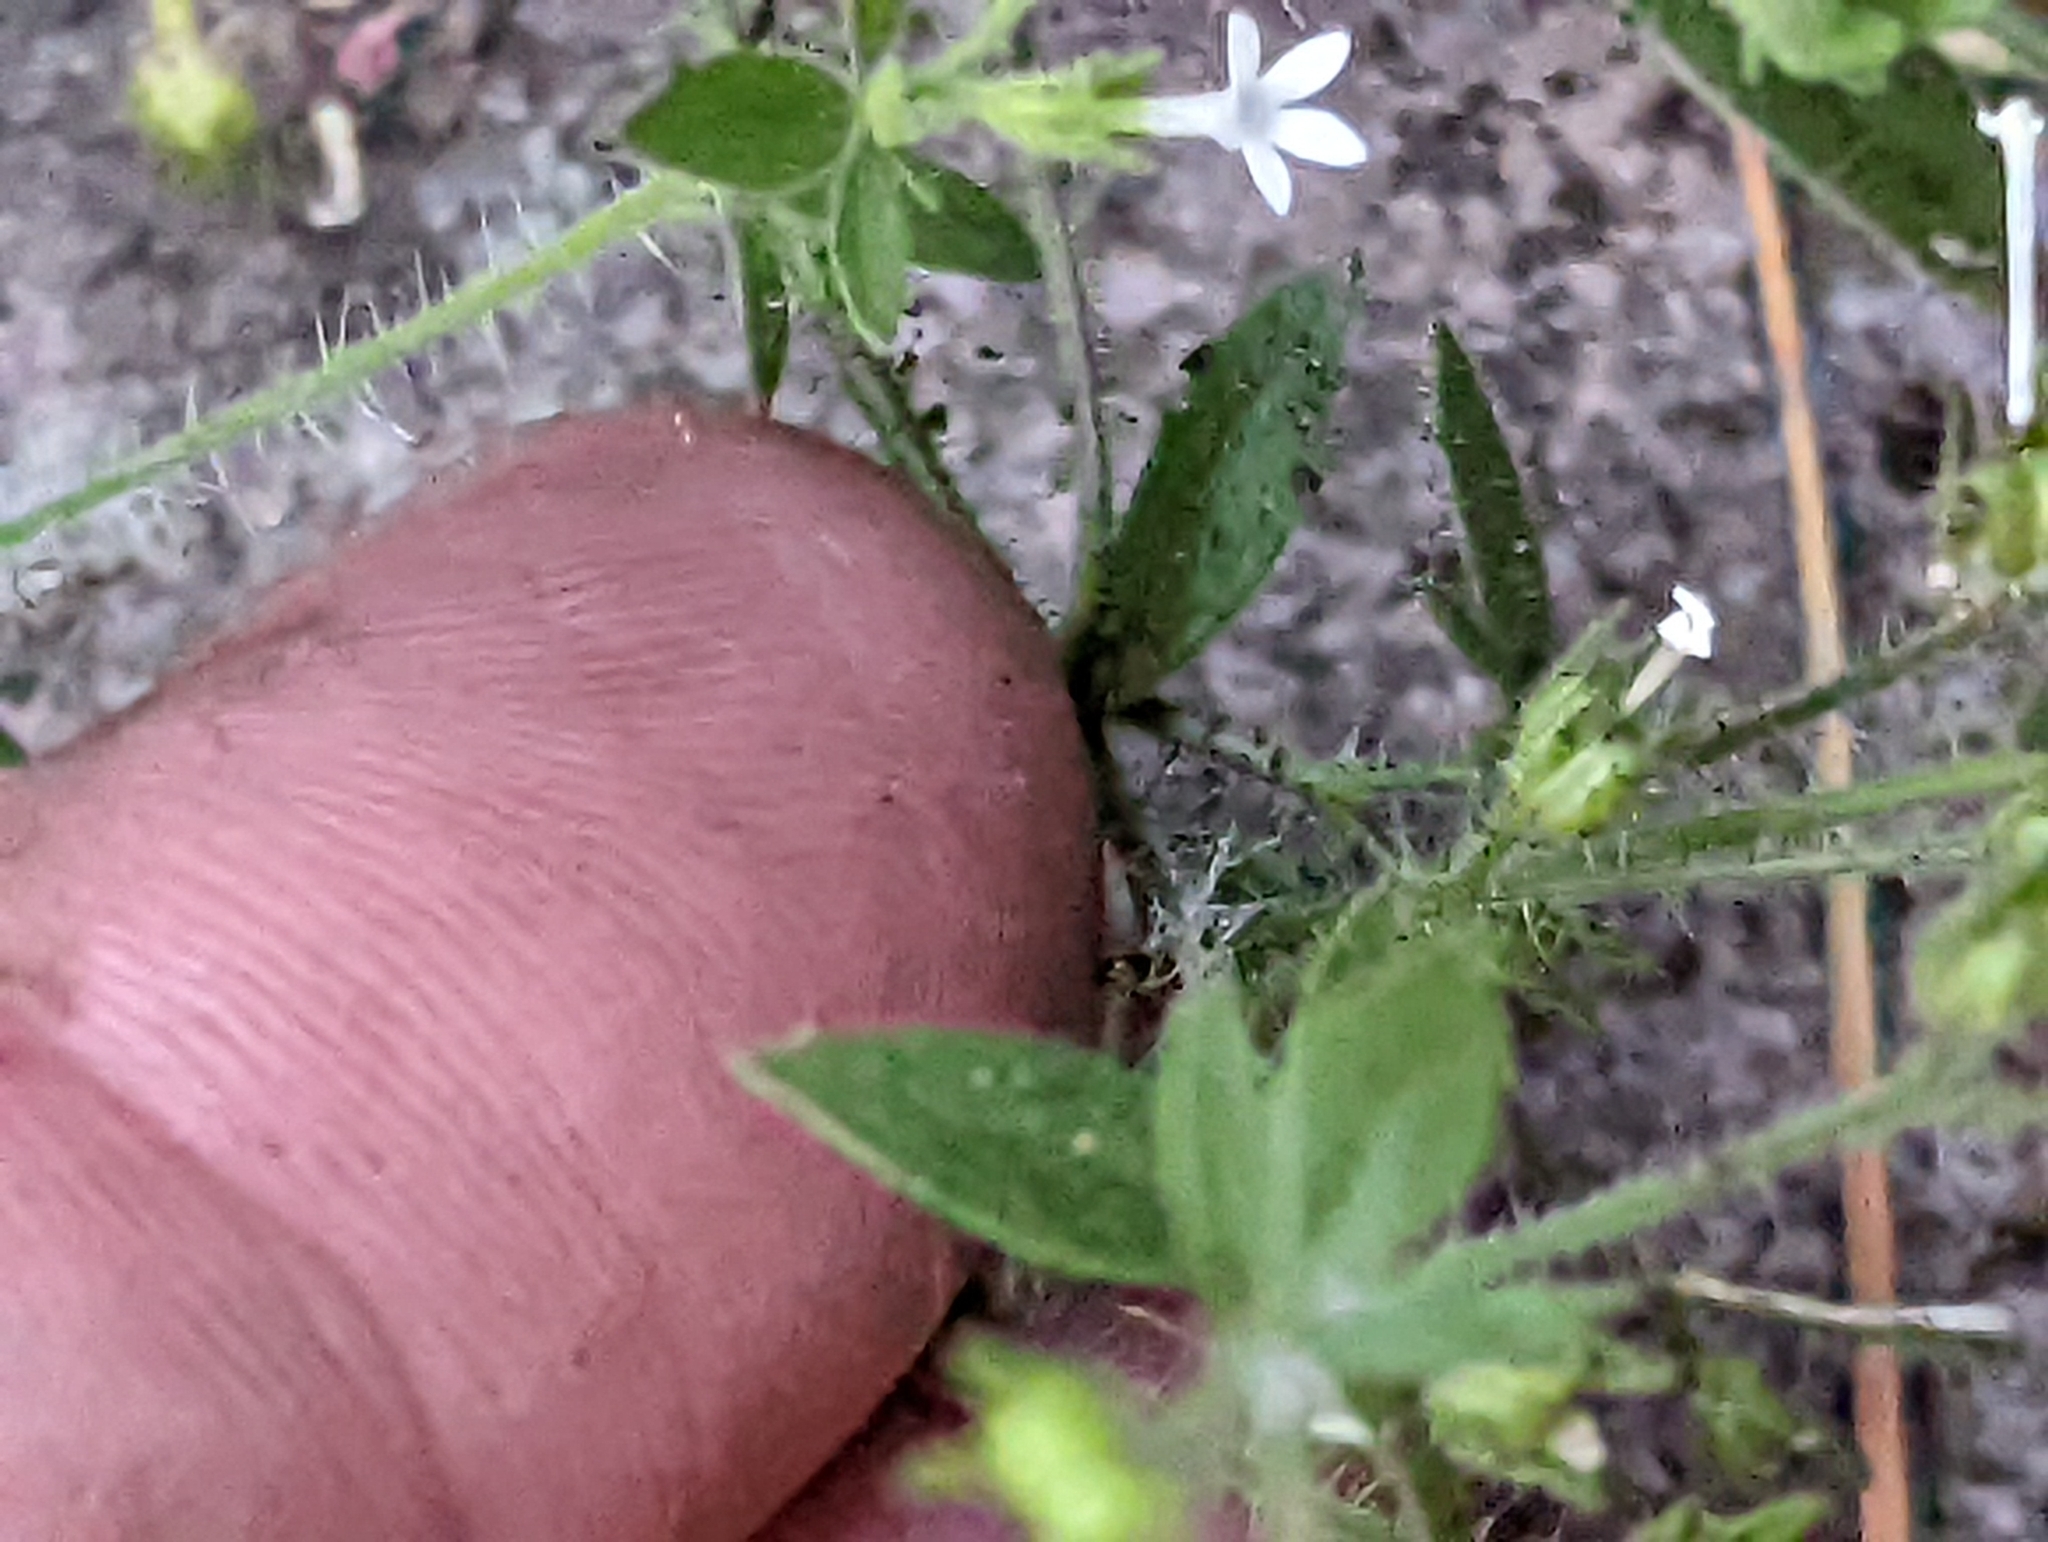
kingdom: Plantae
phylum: Tracheophyta
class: Magnoliopsida
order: Ericales
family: Polemoniaceae
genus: Allophyllum
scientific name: Allophyllum integrifolium
